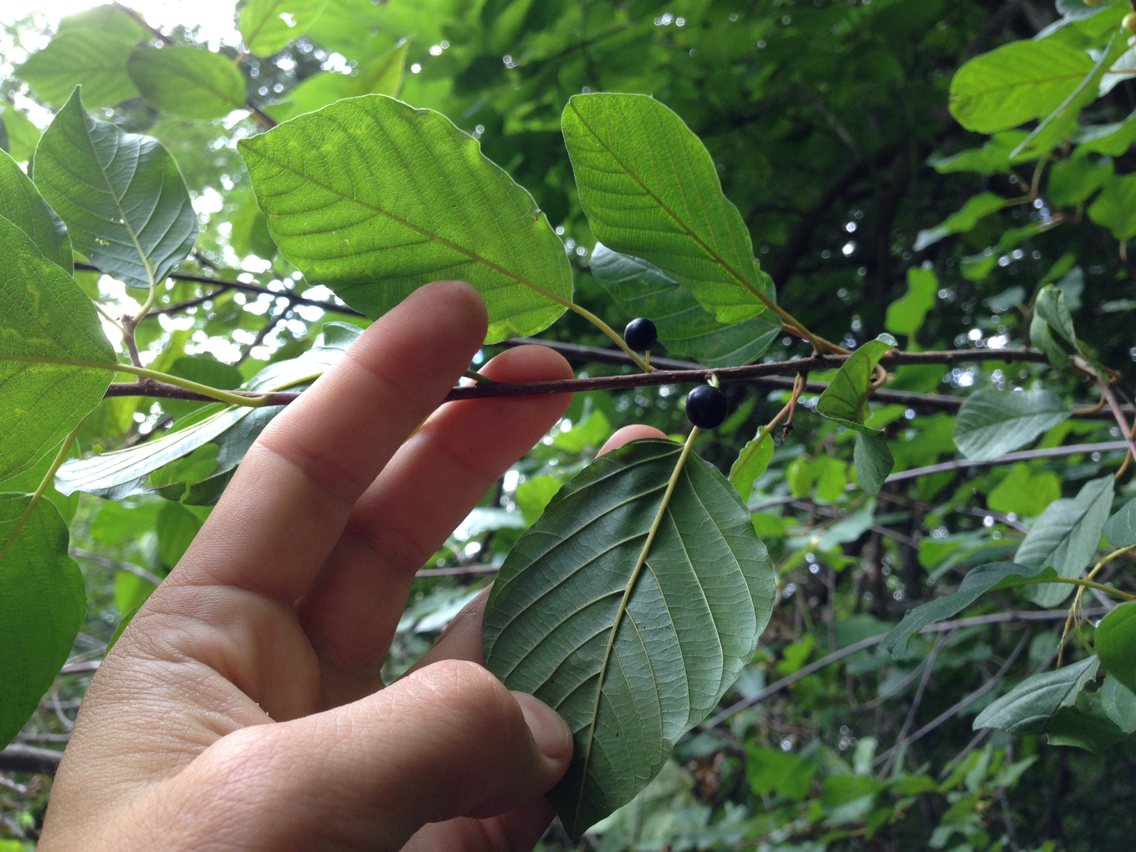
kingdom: Plantae
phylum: Tracheophyta
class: Magnoliopsida
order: Rosales
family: Rhamnaceae
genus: Frangula
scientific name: Frangula alnus
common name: Alder buckthorn
